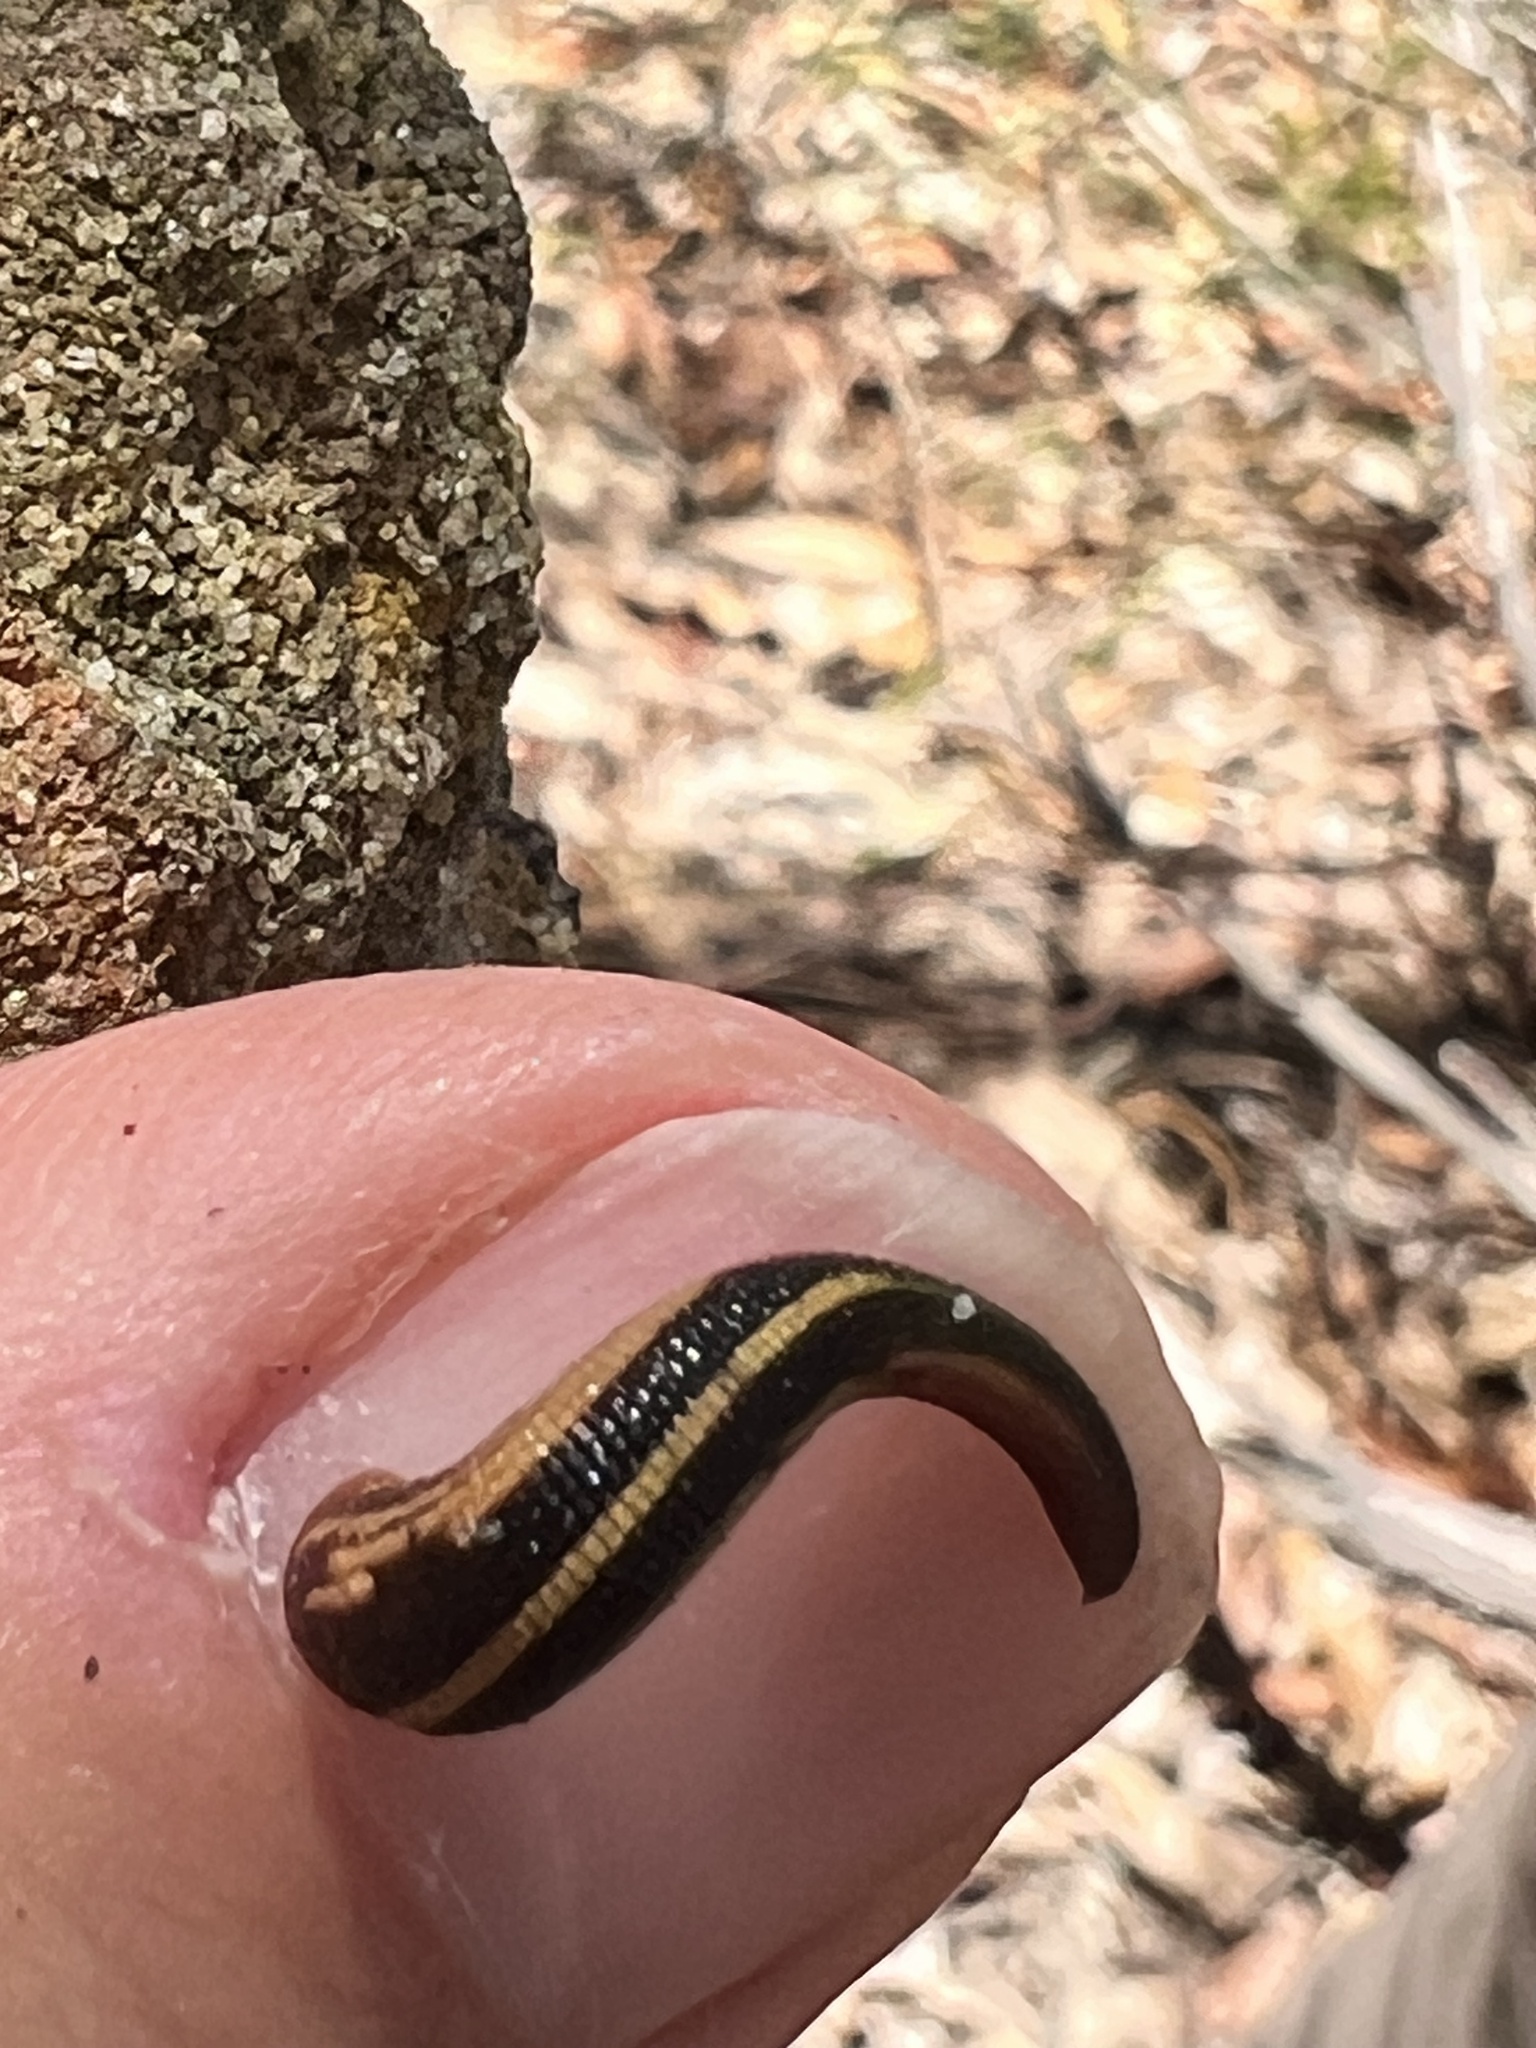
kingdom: Animalia
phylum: Annelida
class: Clitellata
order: Arhynchobdellida
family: Haemadipsidae
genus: Chtonobdella
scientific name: Chtonobdella whitmani
